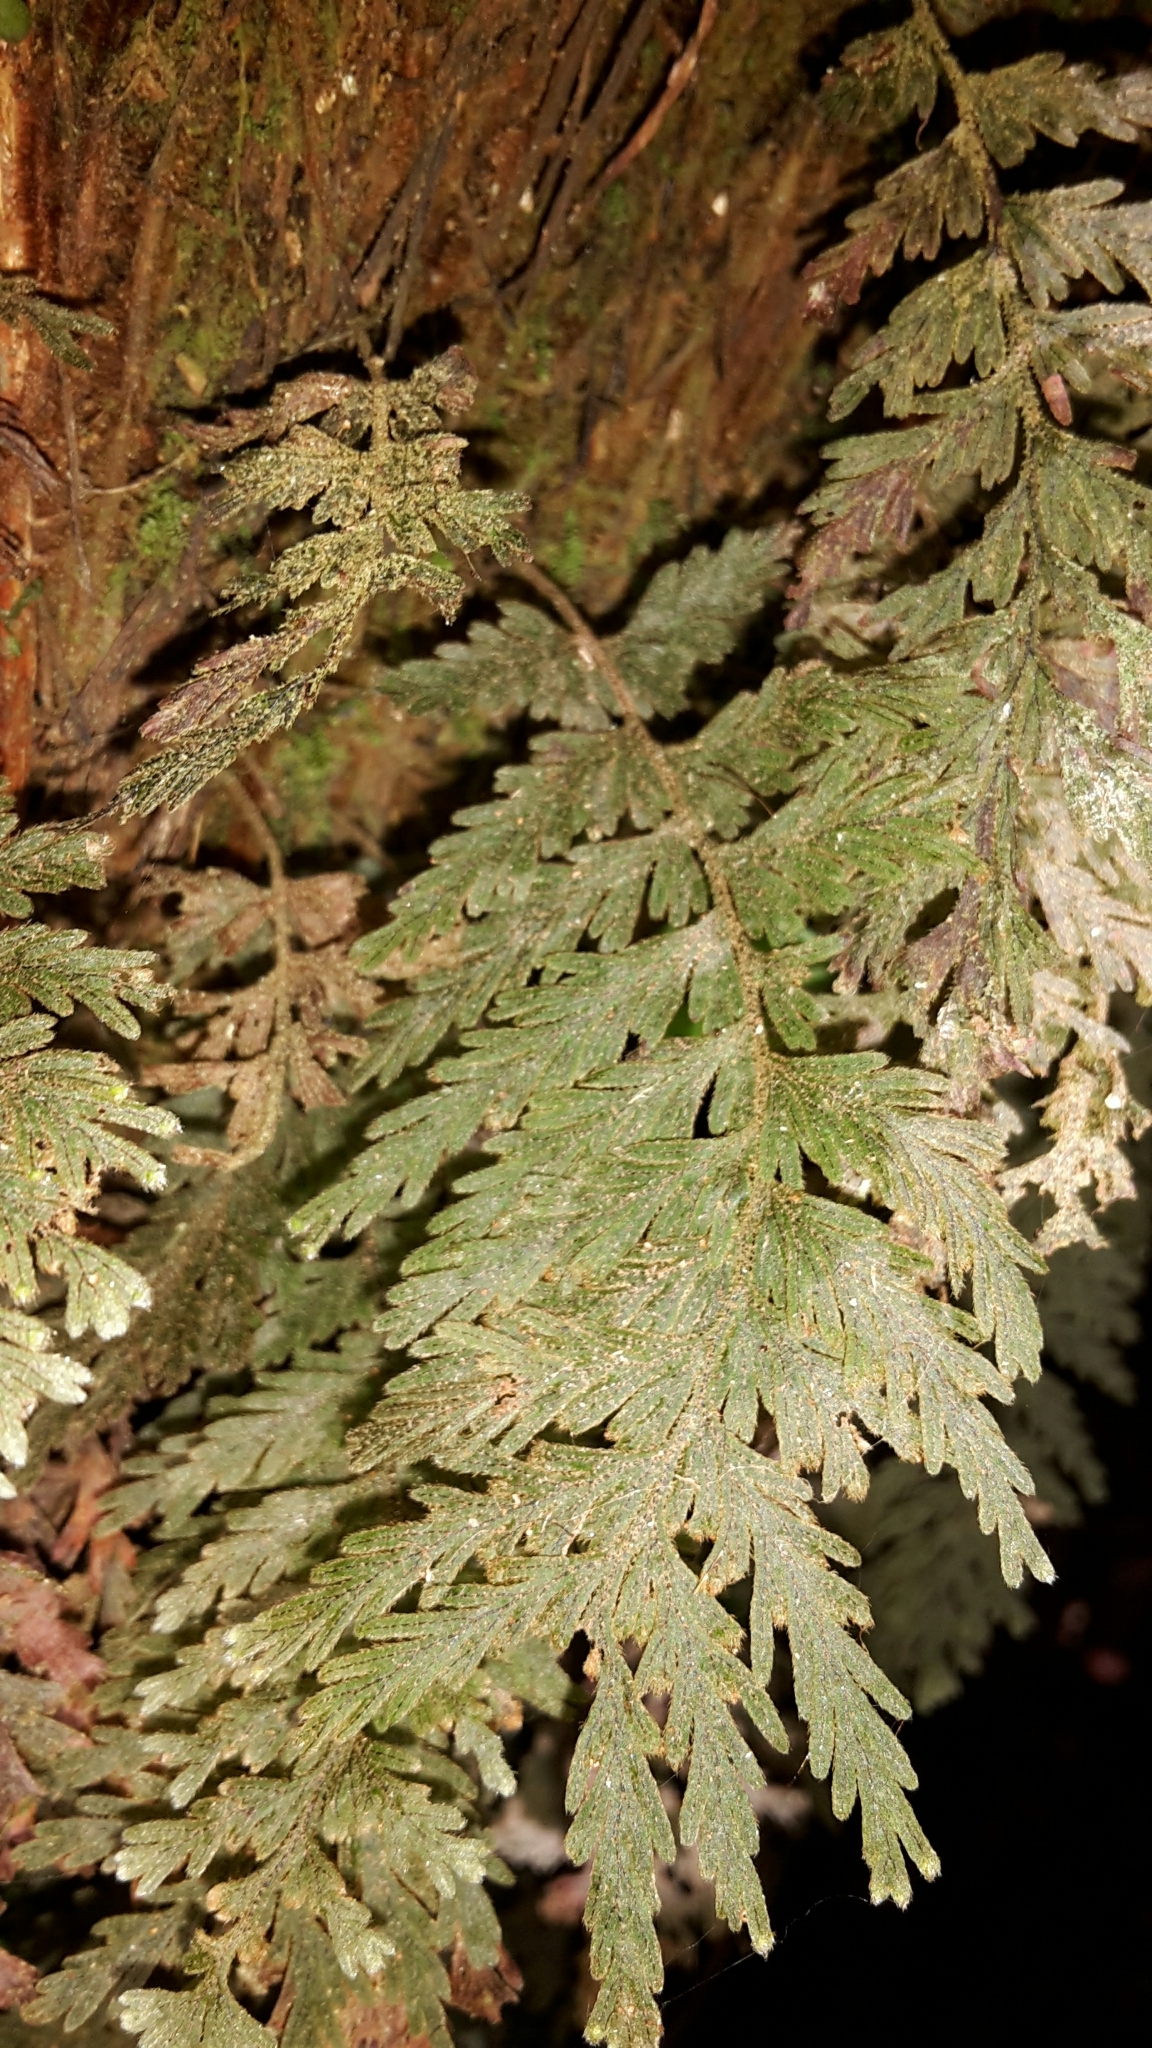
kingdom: Plantae
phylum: Tracheophyta
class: Polypodiopsida
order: Hymenophyllales
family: Hymenophyllaceae
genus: Hymenophyllum
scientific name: Hymenophyllum frankliniae
